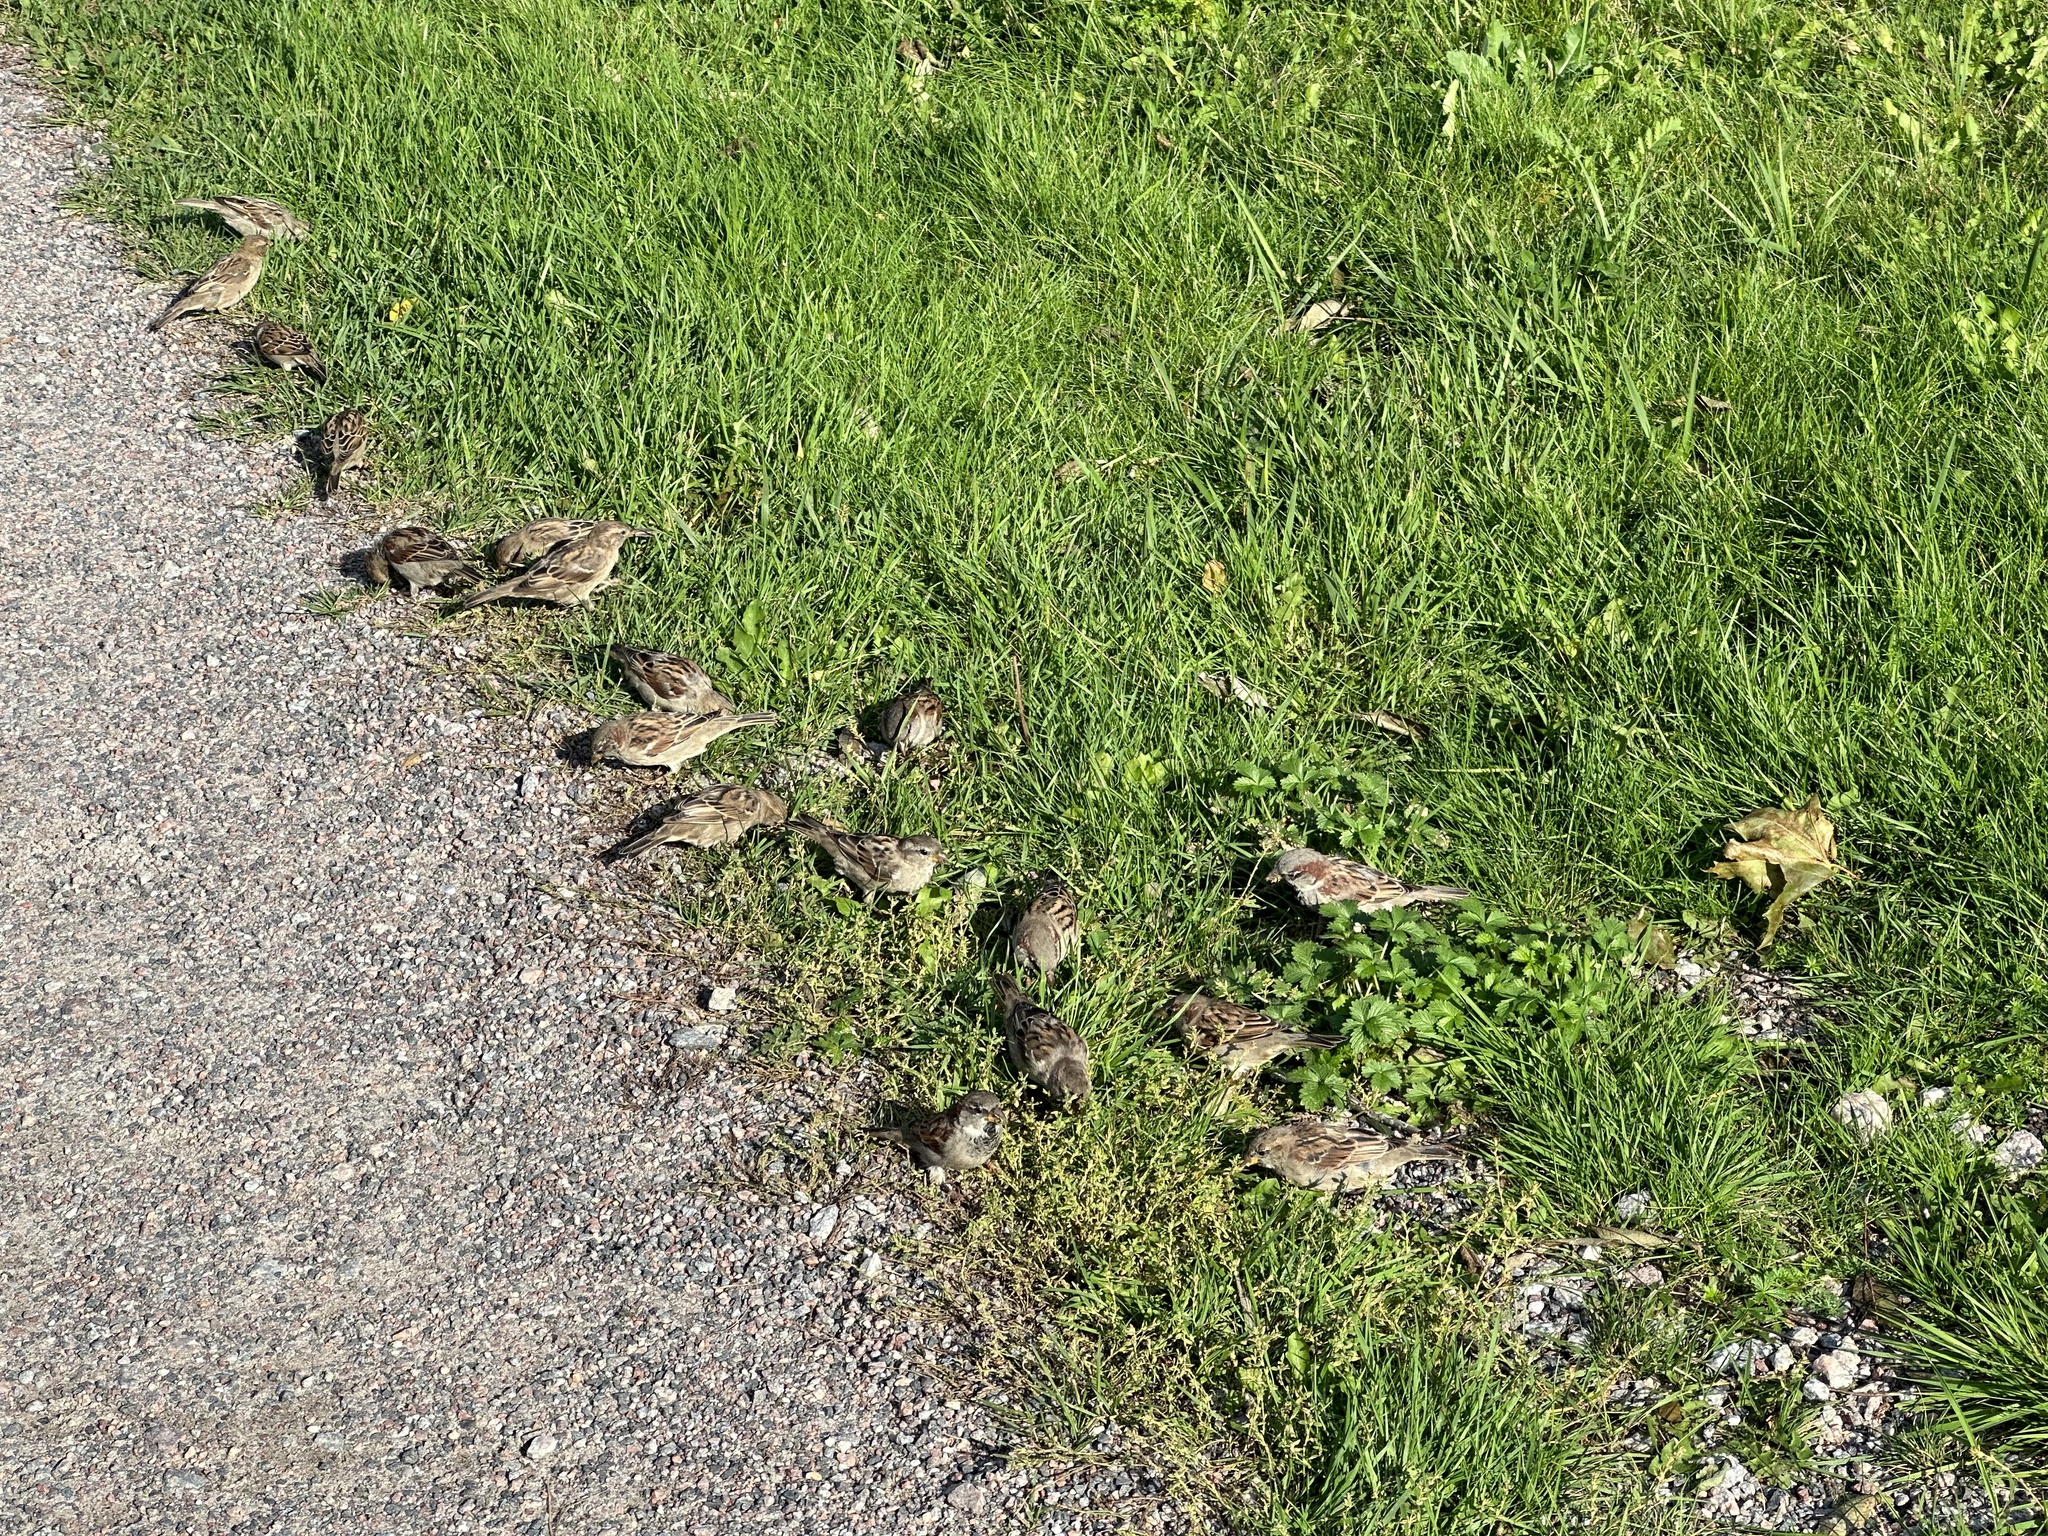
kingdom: Animalia
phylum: Chordata
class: Aves
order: Passeriformes
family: Passeridae
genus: Passer
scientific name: Passer domesticus
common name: House sparrow
